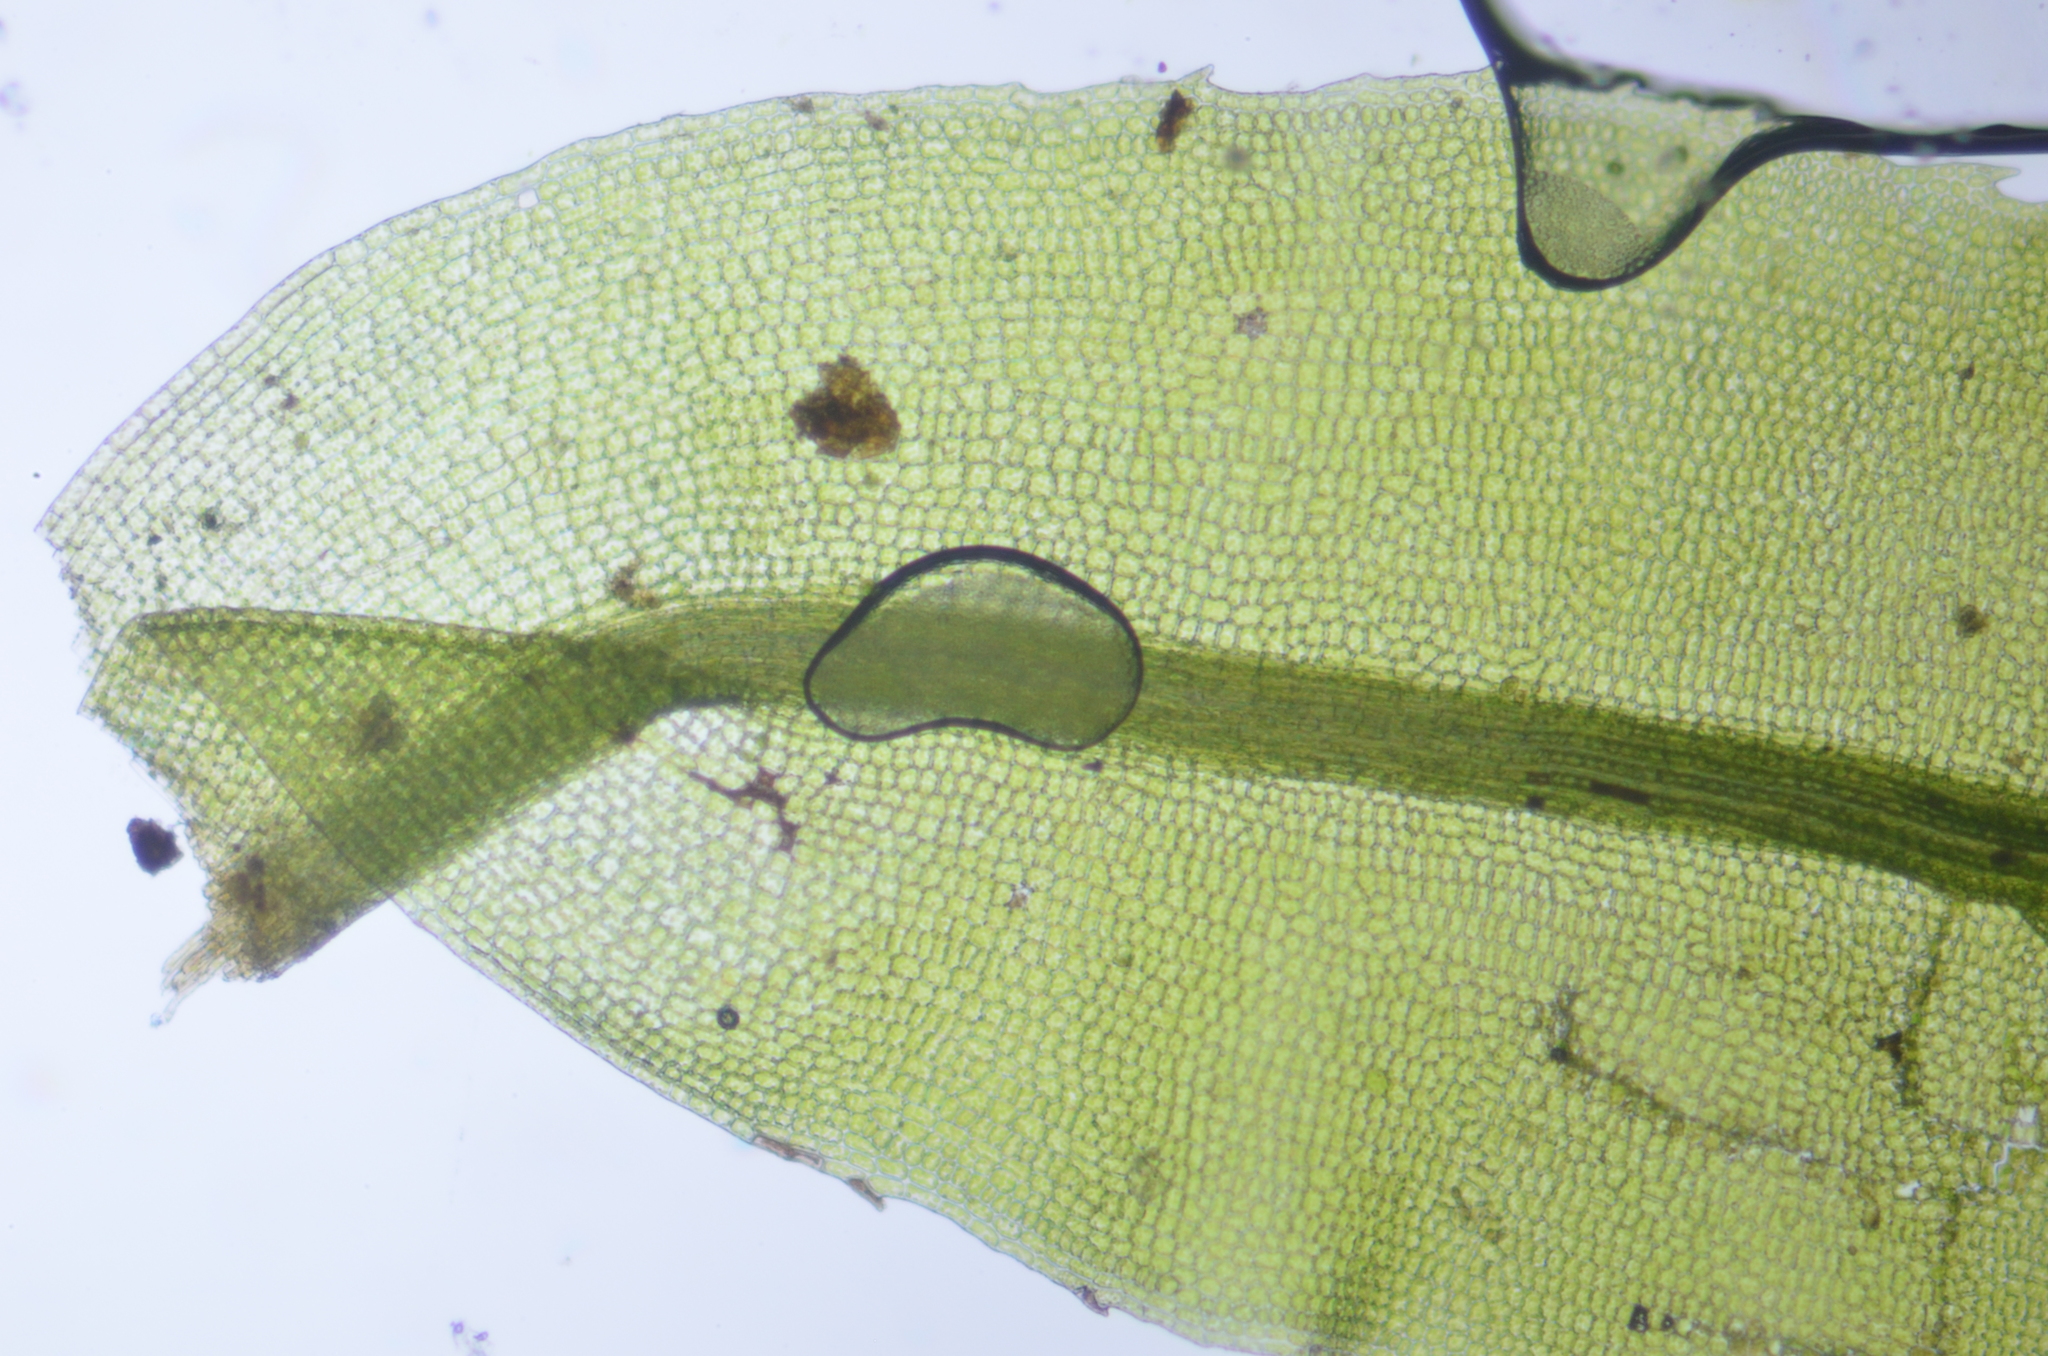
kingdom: Plantae
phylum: Bryophyta
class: Polytrichopsida
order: Polytrichales
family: Polytrichaceae
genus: Oligotrichum
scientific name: Oligotrichum parallelum
